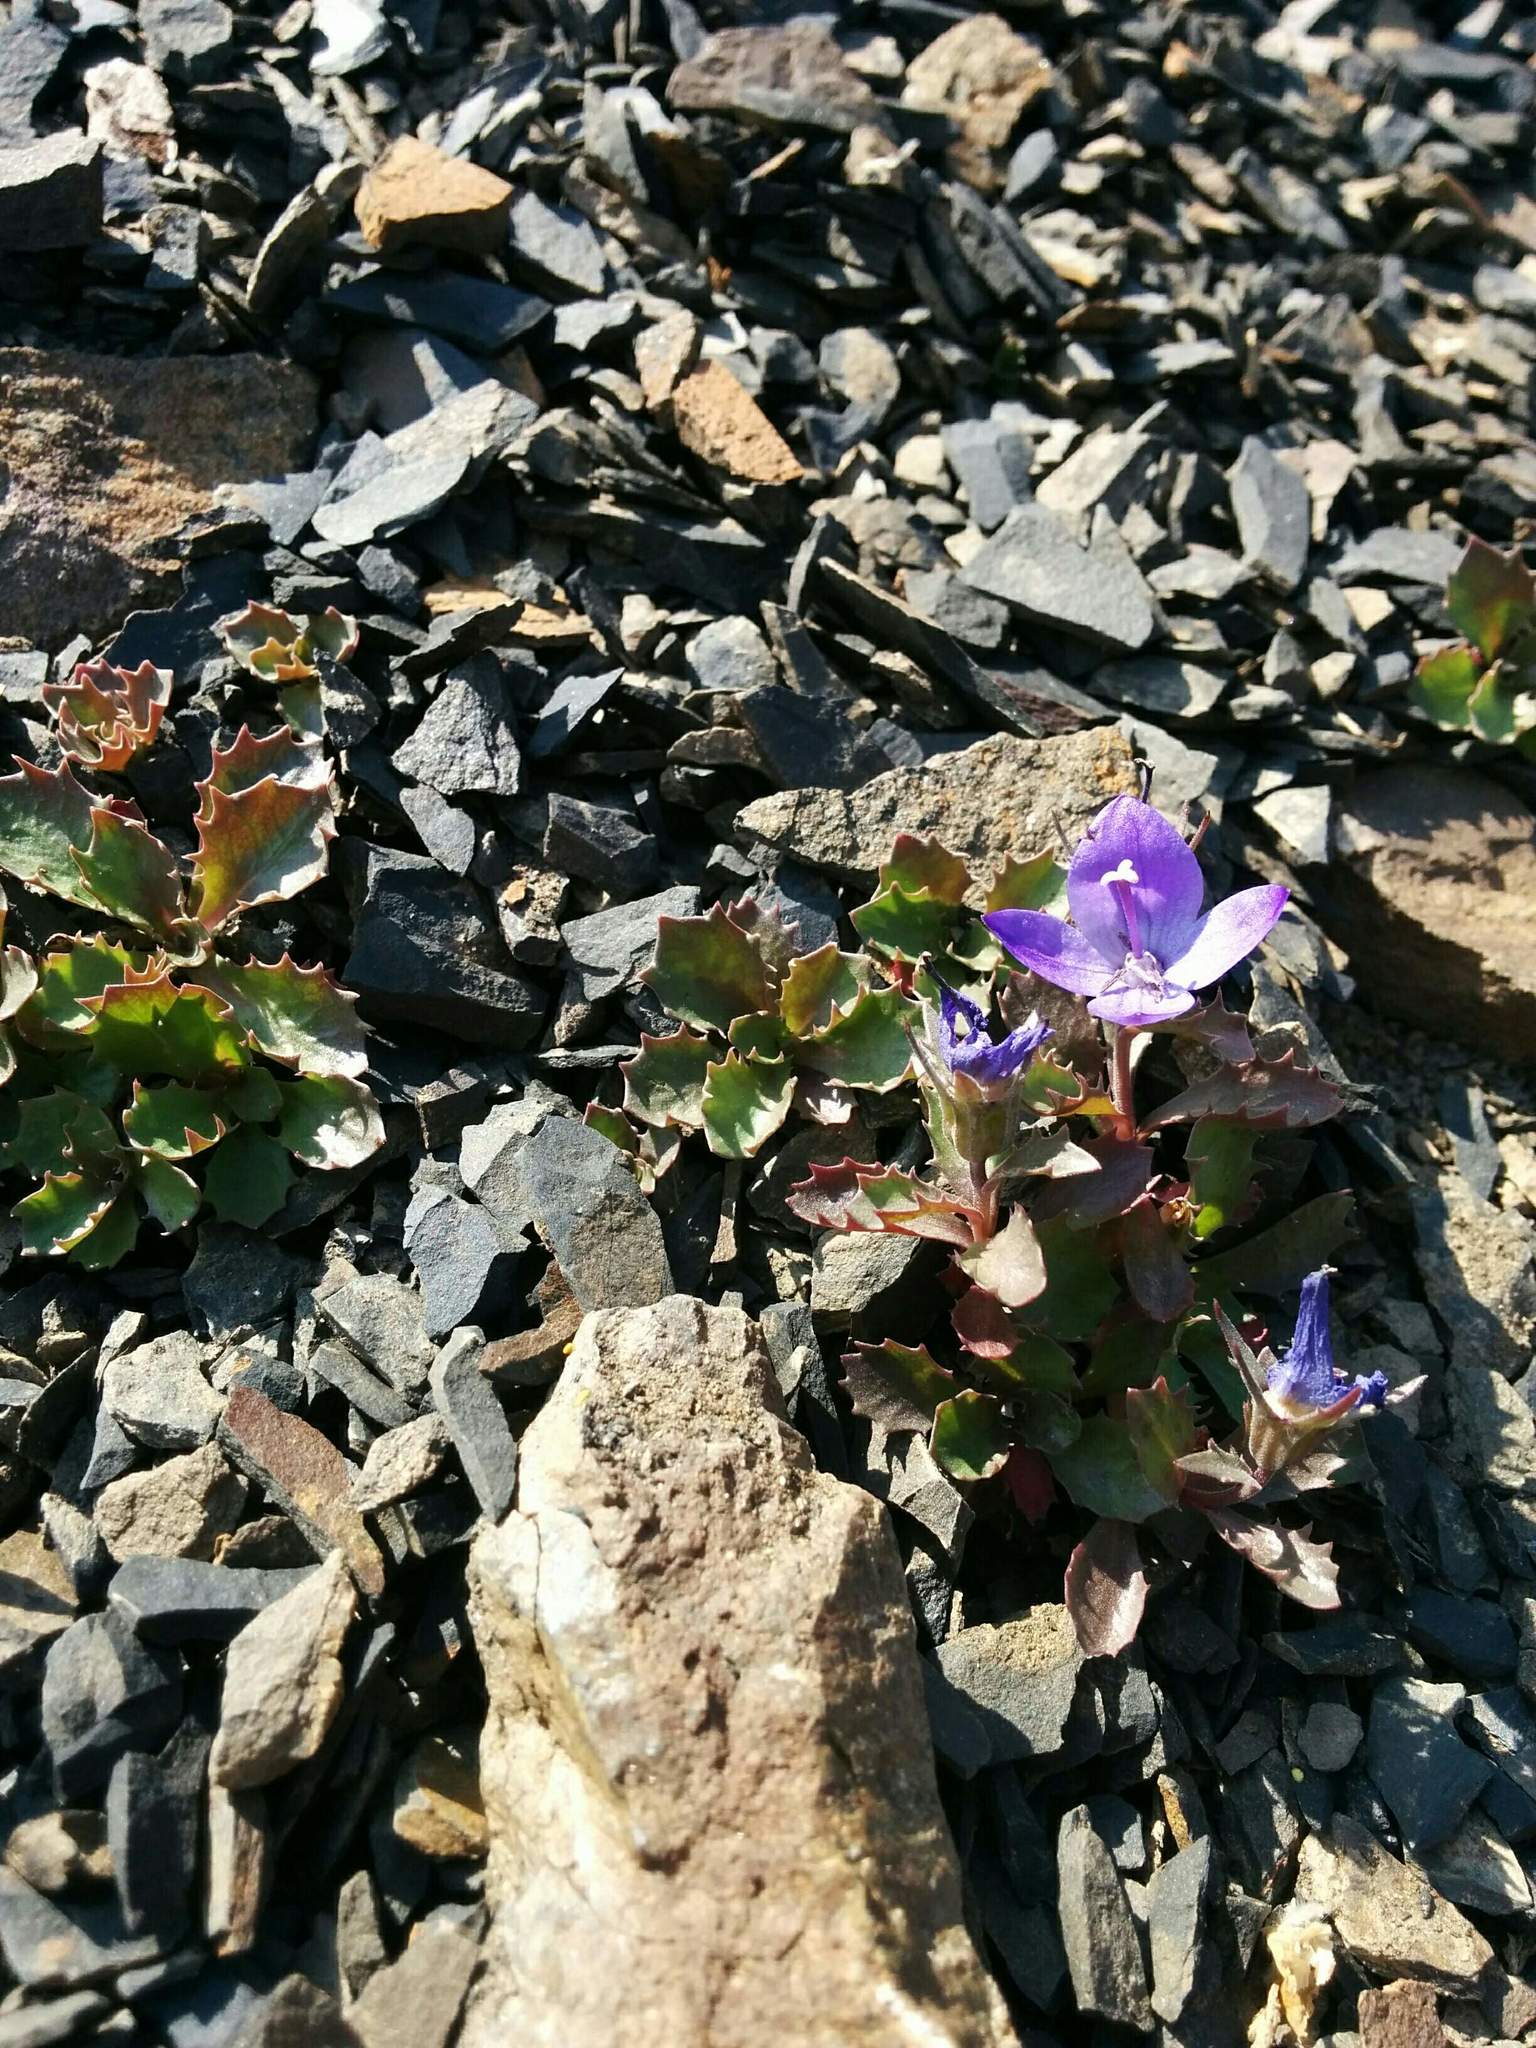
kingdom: Plantae
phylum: Tracheophyta
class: Magnoliopsida
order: Asterales
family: Campanulaceae
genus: Campanula
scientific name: Campanula piperi
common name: Olympic bellflower
